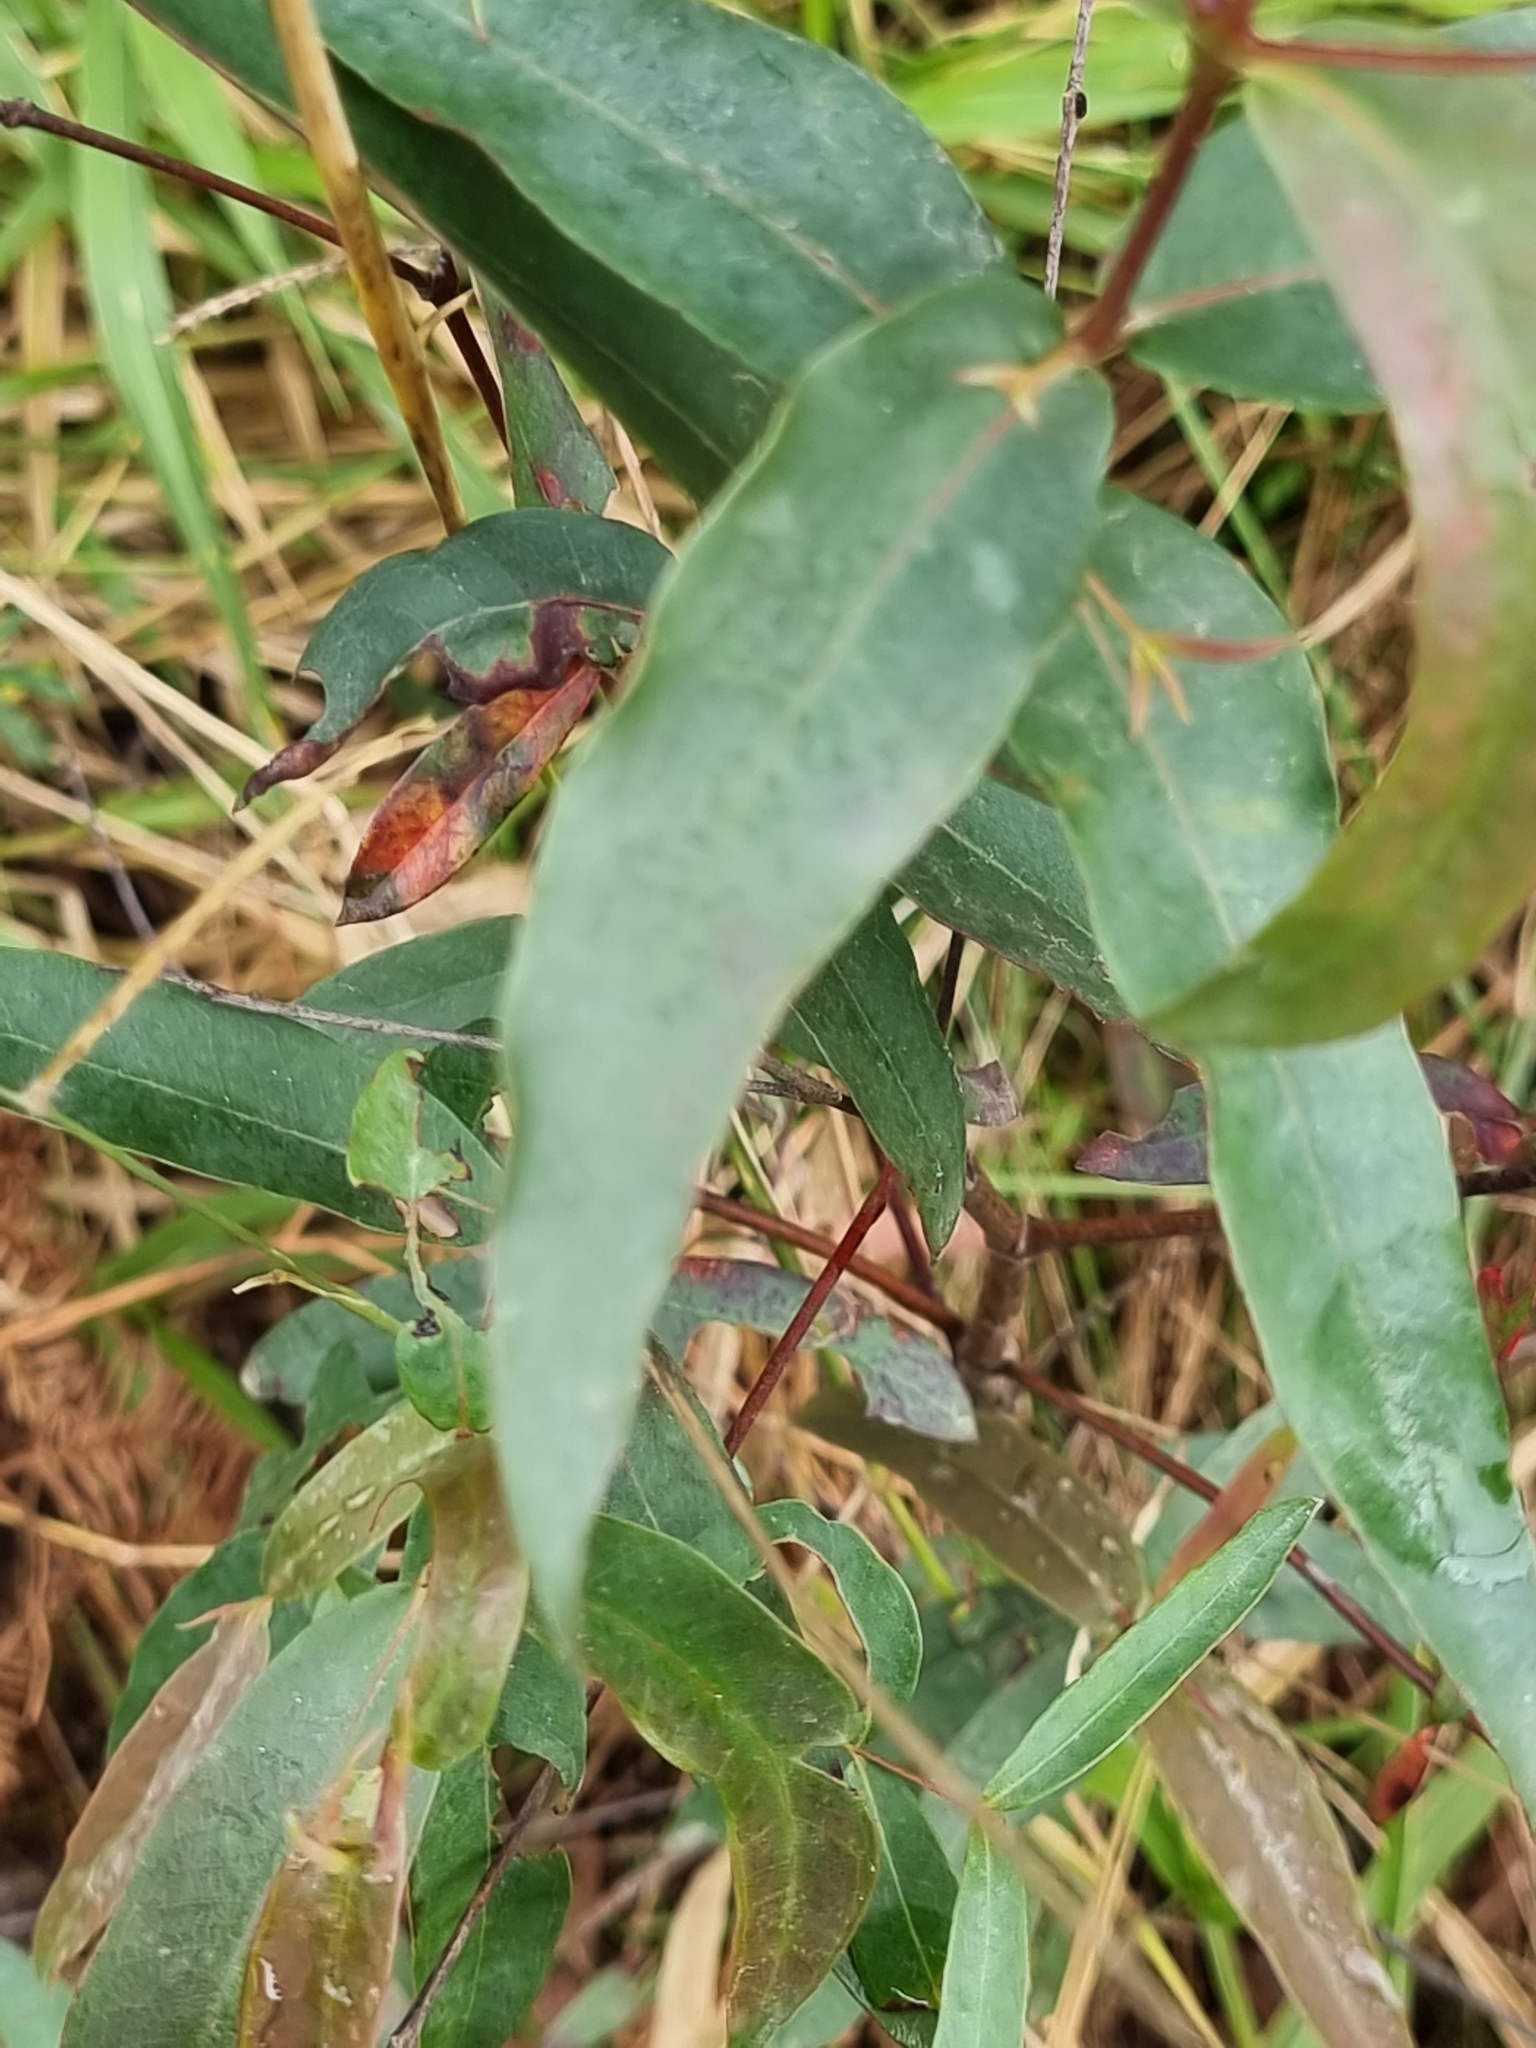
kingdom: Plantae
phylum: Tracheophyta
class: Magnoliopsida
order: Myrtales
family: Myrtaceae
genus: Eucalyptus
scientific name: Eucalyptus pilularis
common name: Blackbutt
